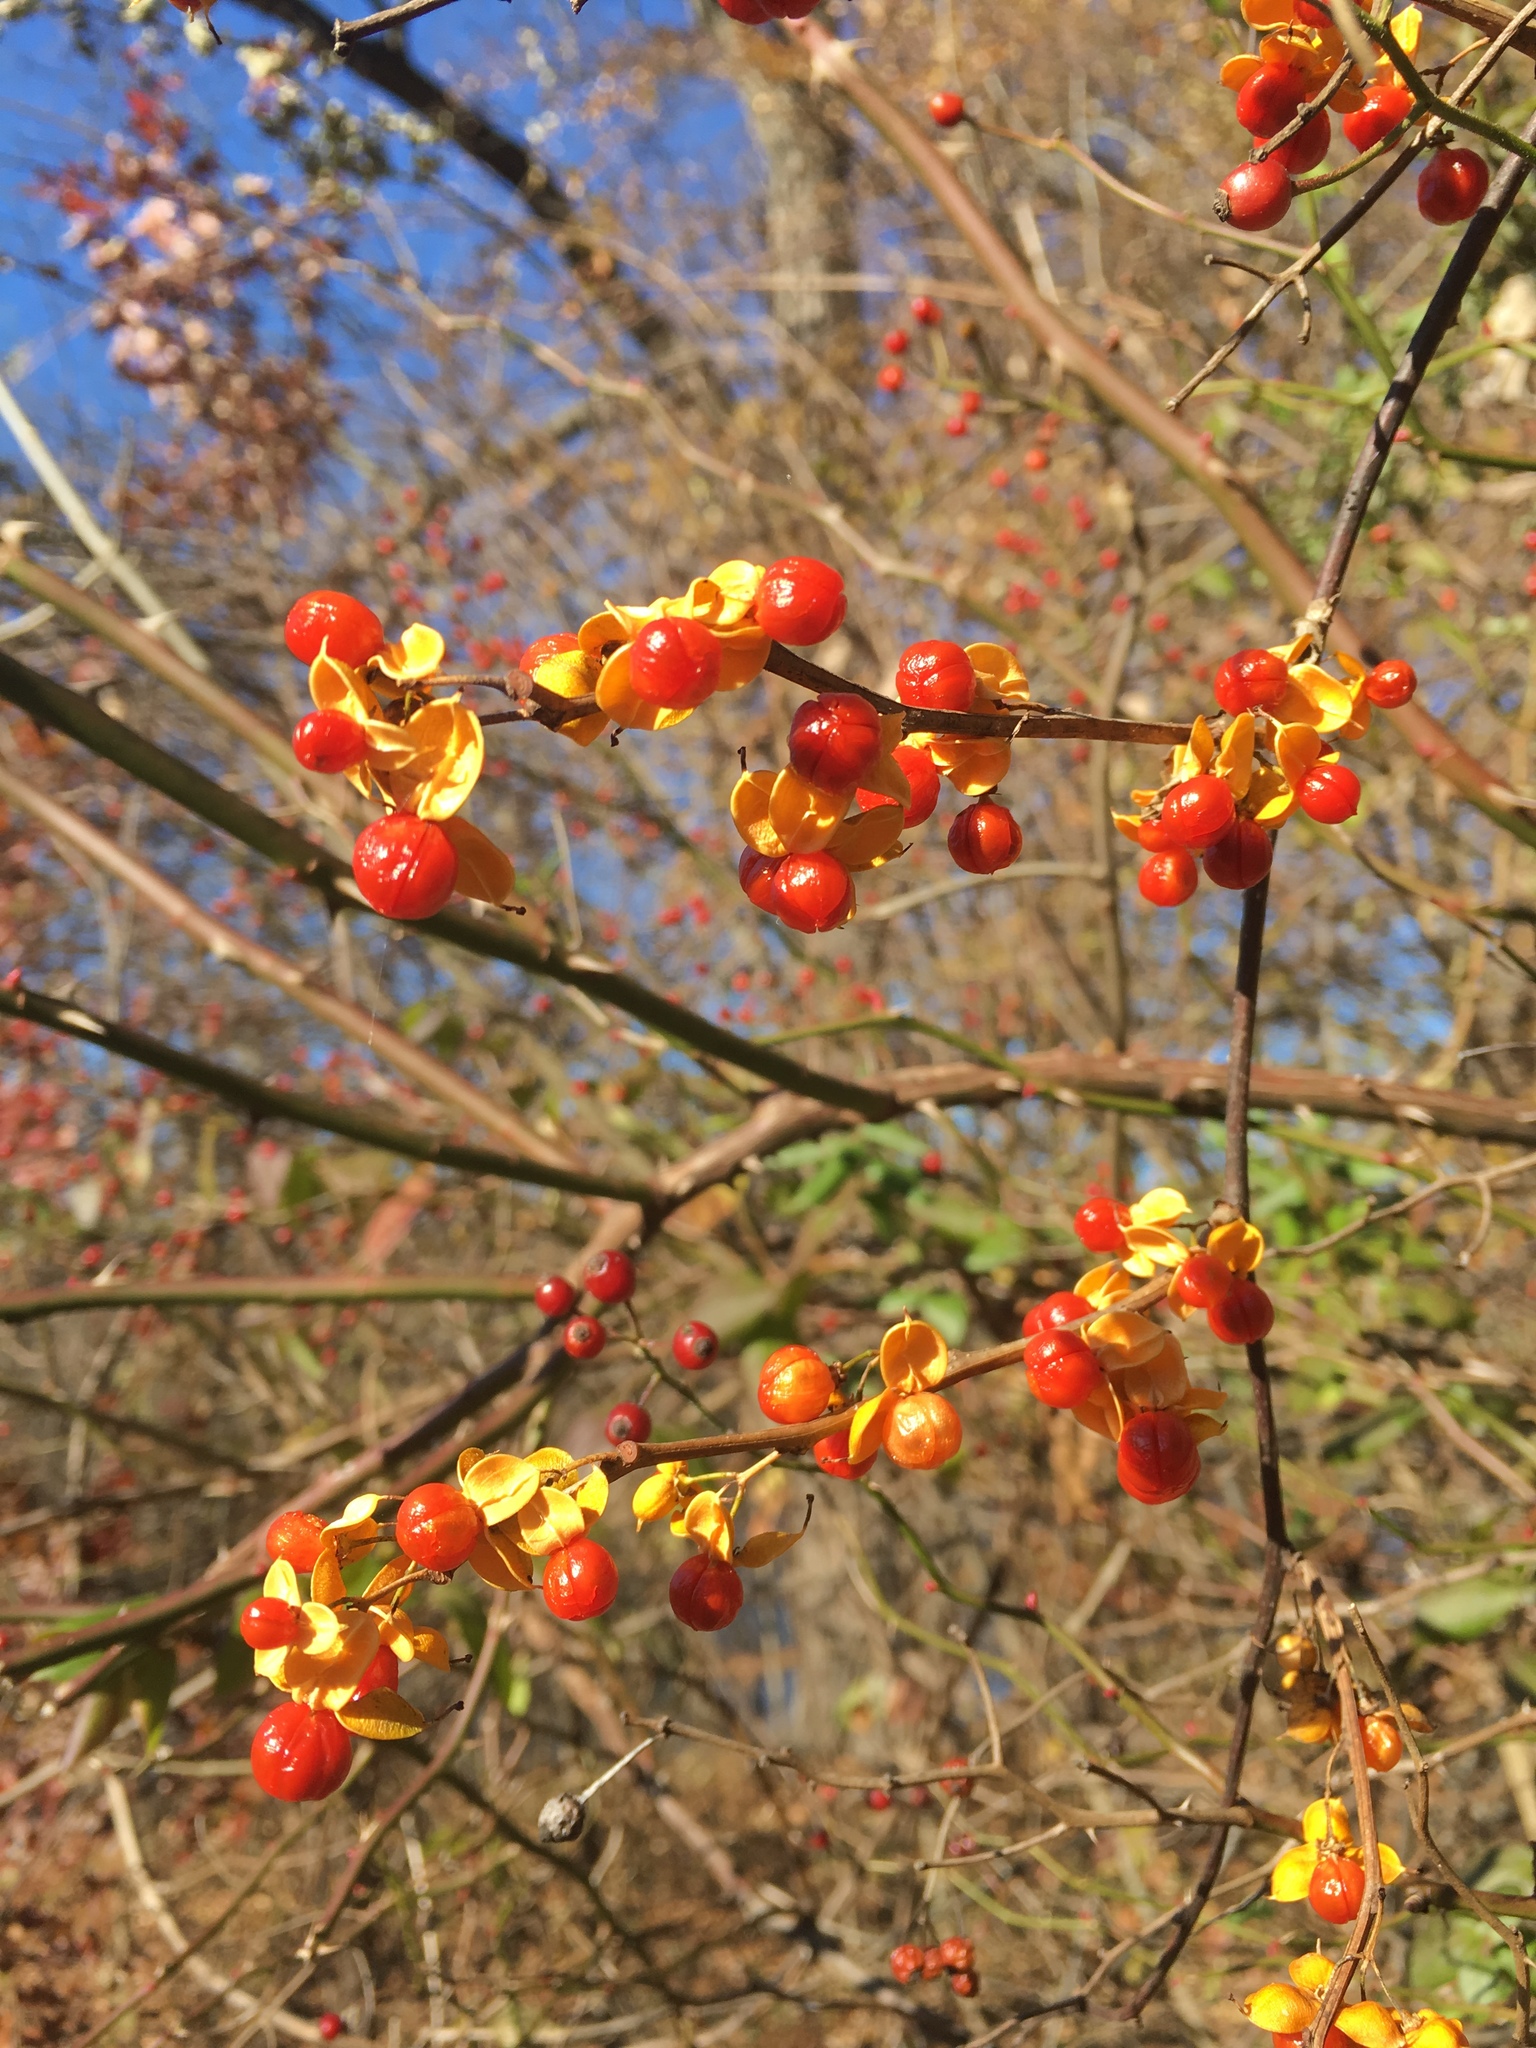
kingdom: Plantae
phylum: Tracheophyta
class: Magnoliopsida
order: Celastrales
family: Celastraceae
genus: Celastrus
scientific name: Celastrus orbiculatus
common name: Oriental bittersweet
